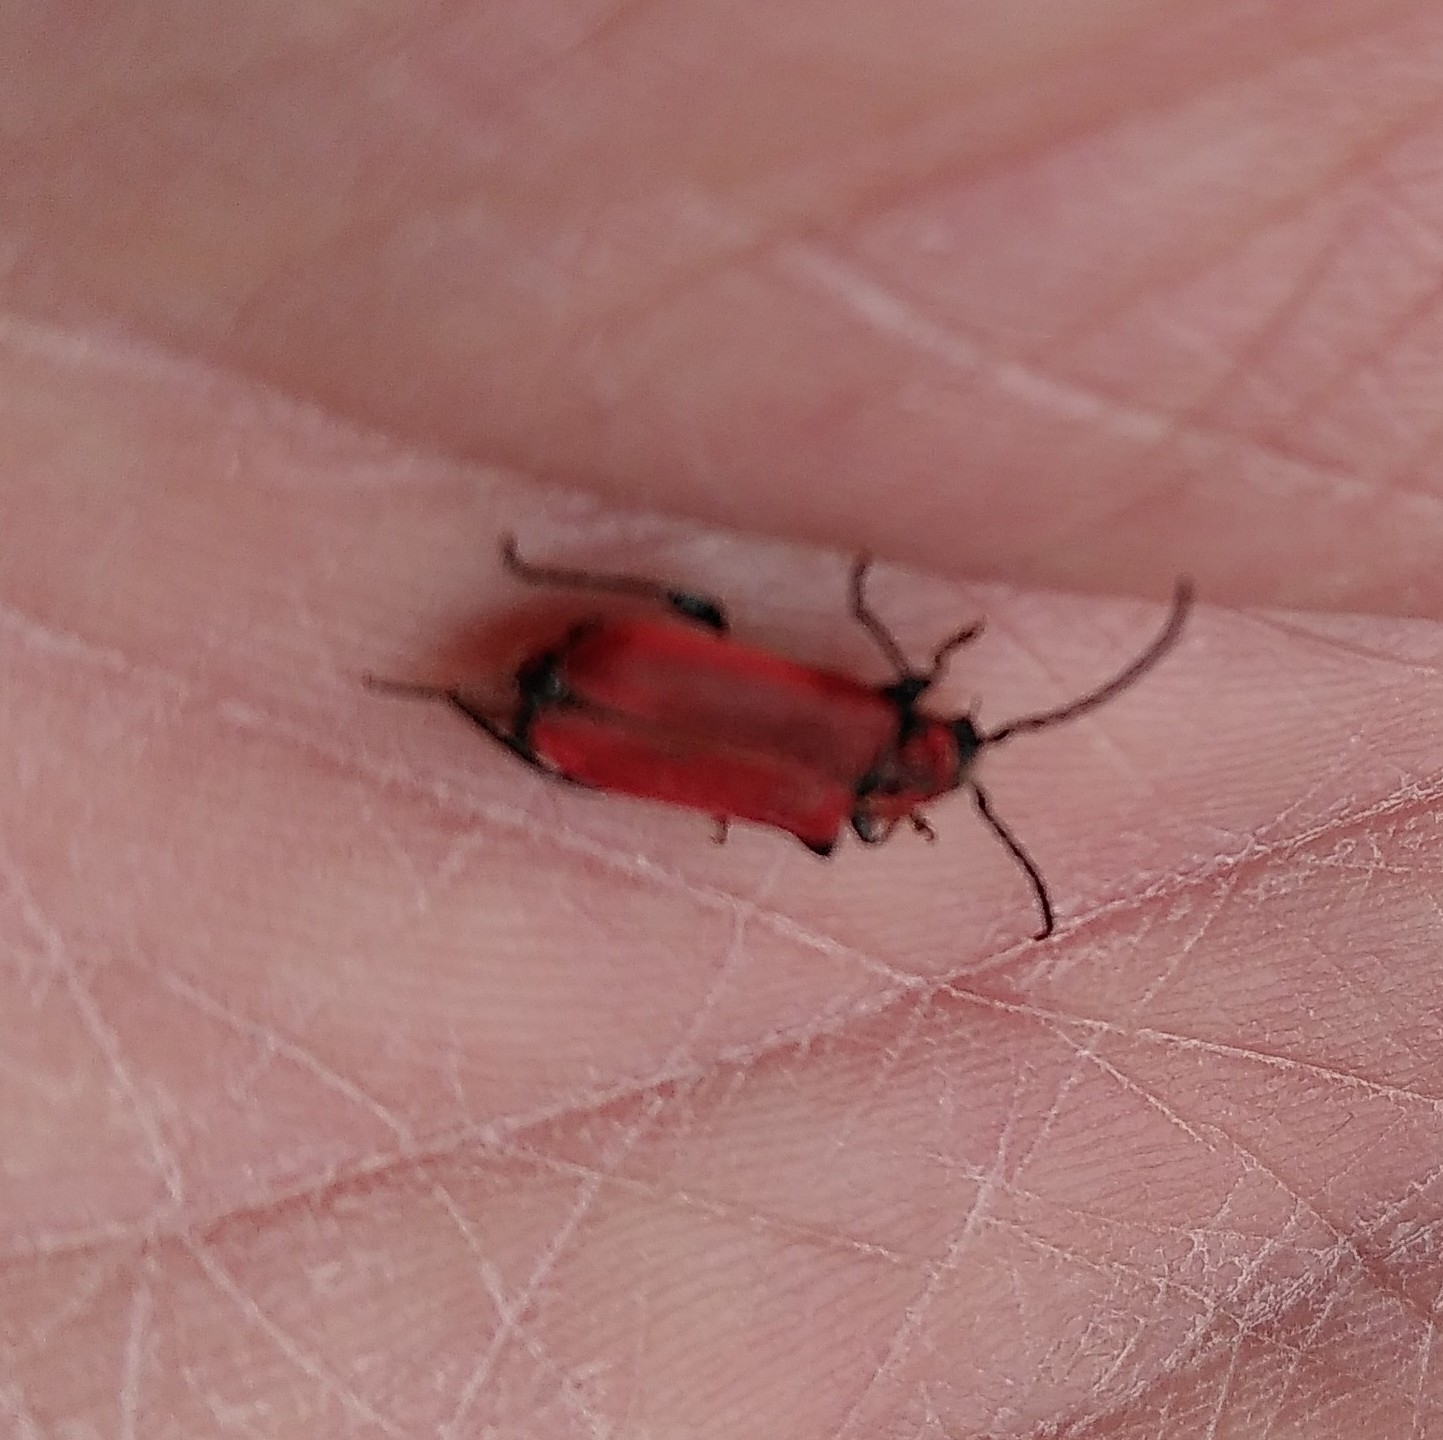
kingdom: Animalia
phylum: Arthropoda
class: Insecta
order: Coleoptera
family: Cerambycidae
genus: Pyrrhidium
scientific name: Pyrrhidium sanguineum
